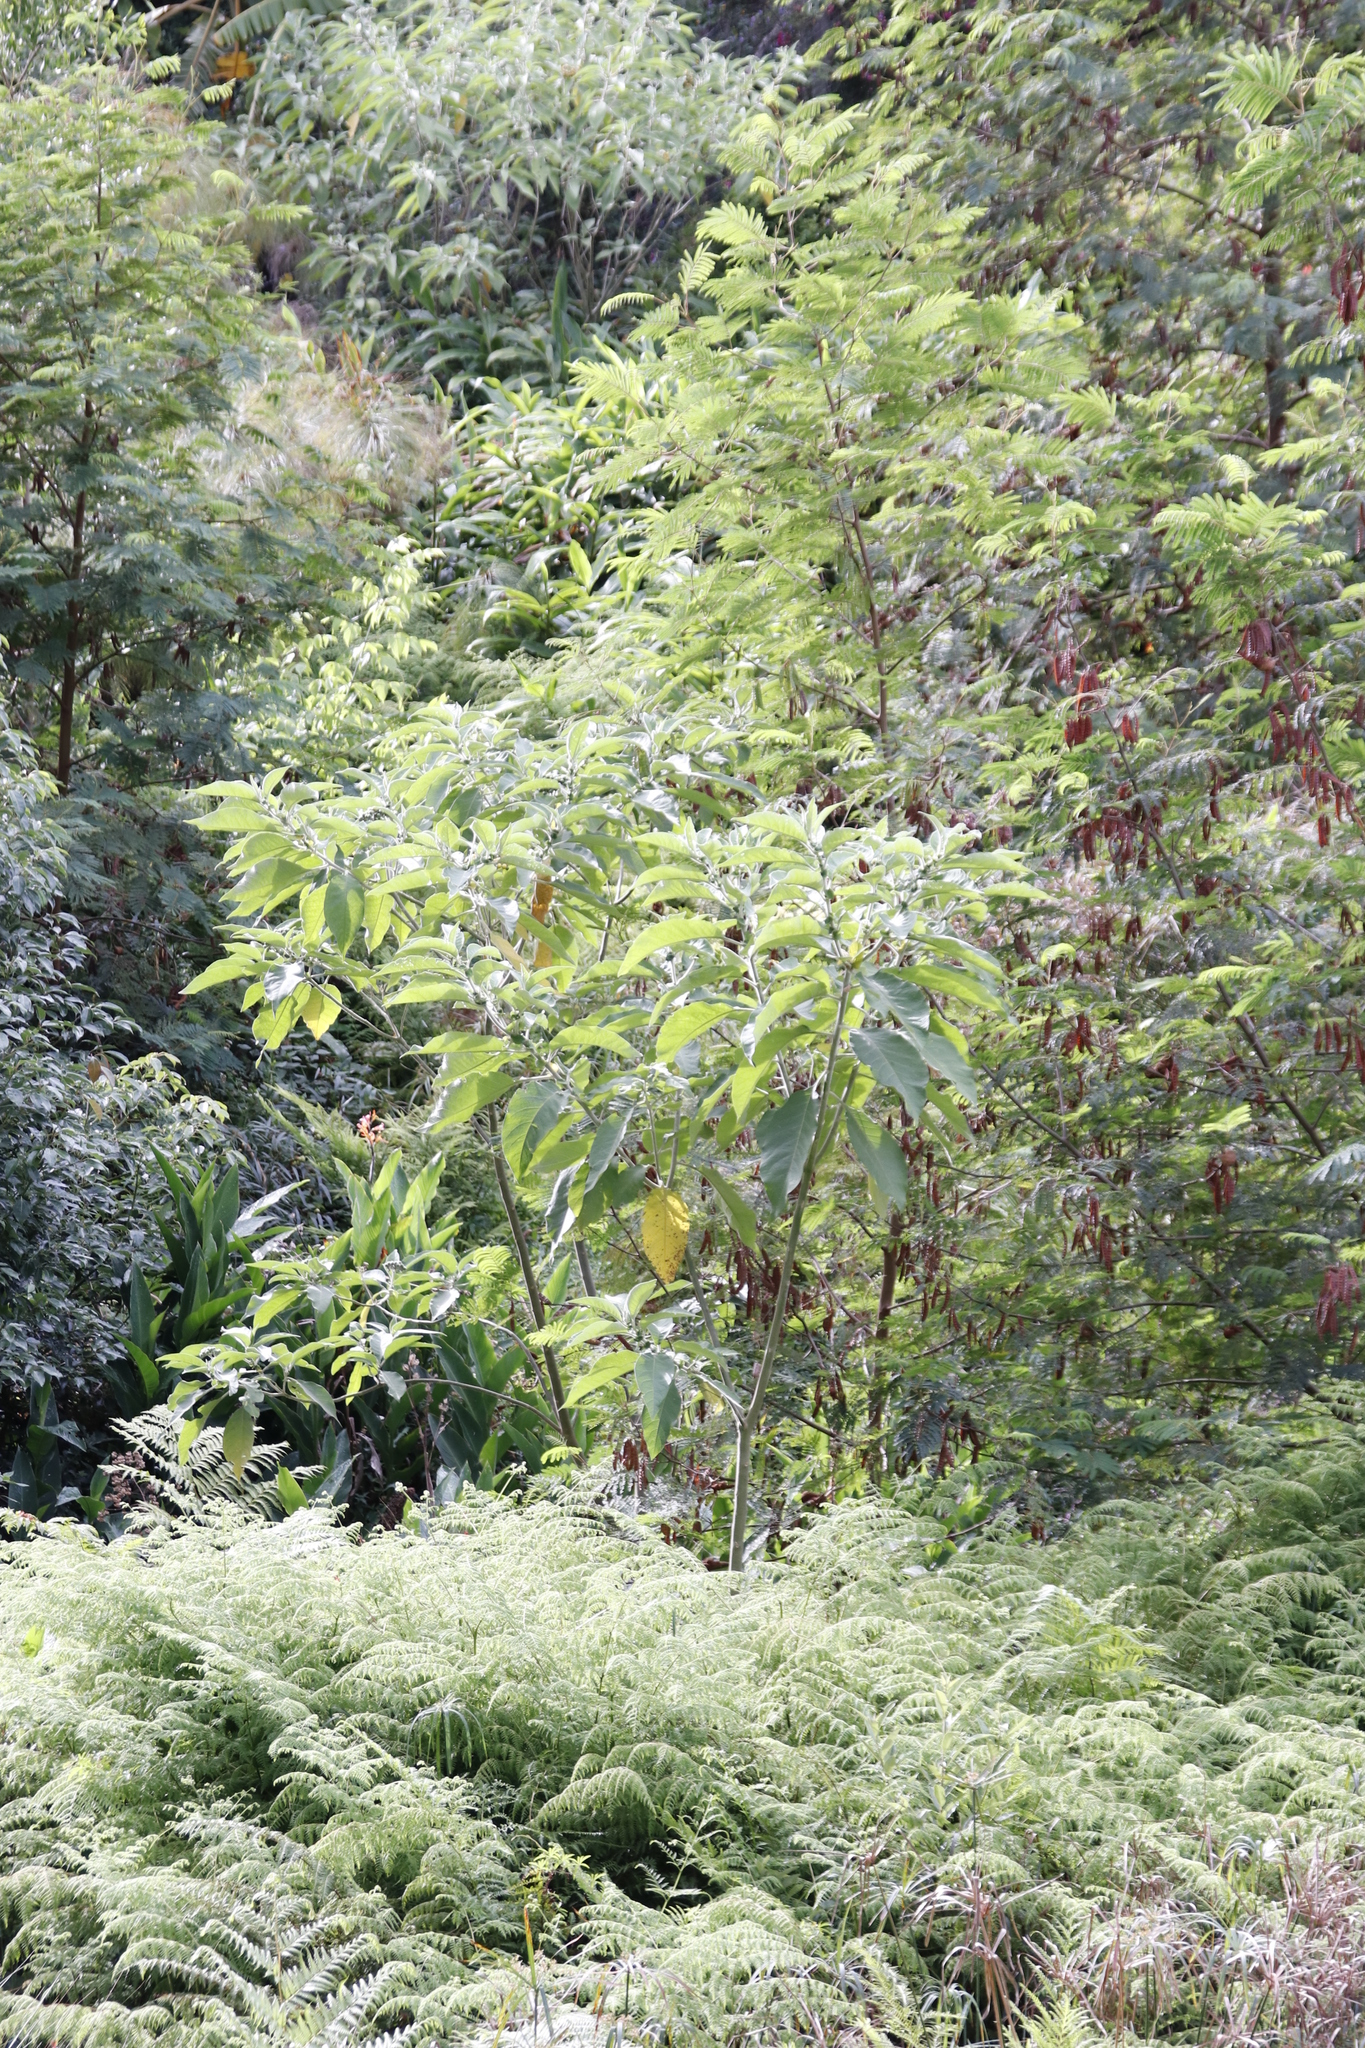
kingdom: Plantae
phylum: Tracheophyta
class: Magnoliopsida
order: Solanales
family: Solanaceae
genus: Solanum
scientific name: Solanum mauritianum
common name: Earleaf nightshade
